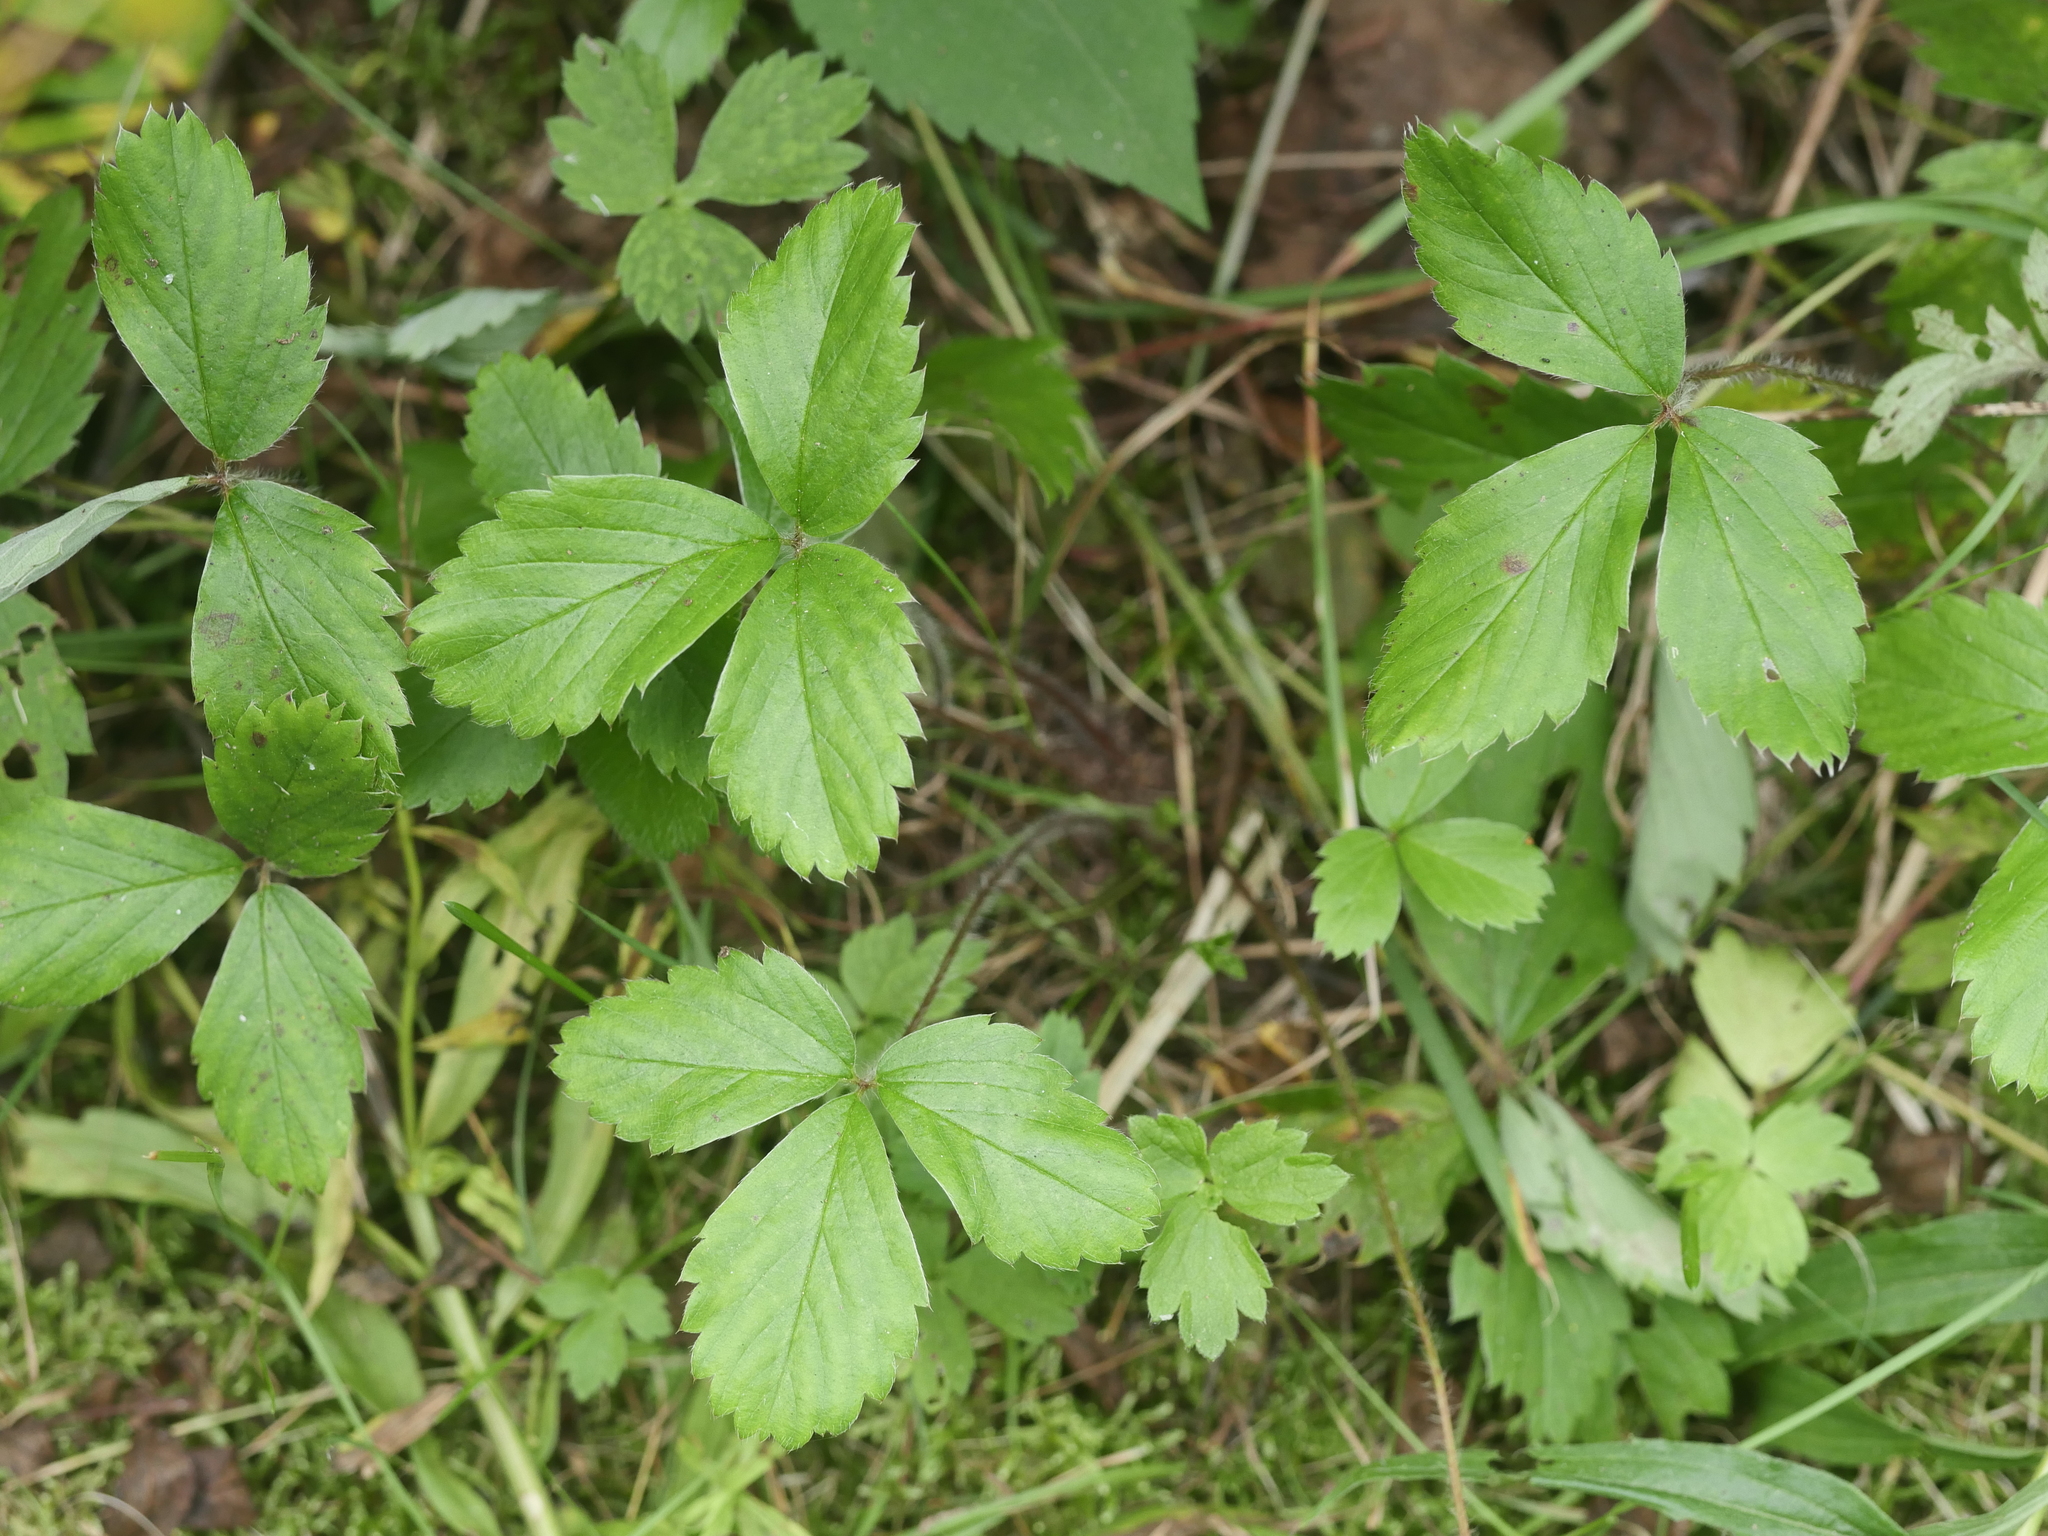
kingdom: Plantae
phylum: Tracheophyta
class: Magnoliopsida
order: Rosales
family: Rosaceae
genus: Fragaria
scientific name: Fragaria virginiana
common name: Thickleaved wild strawberry
